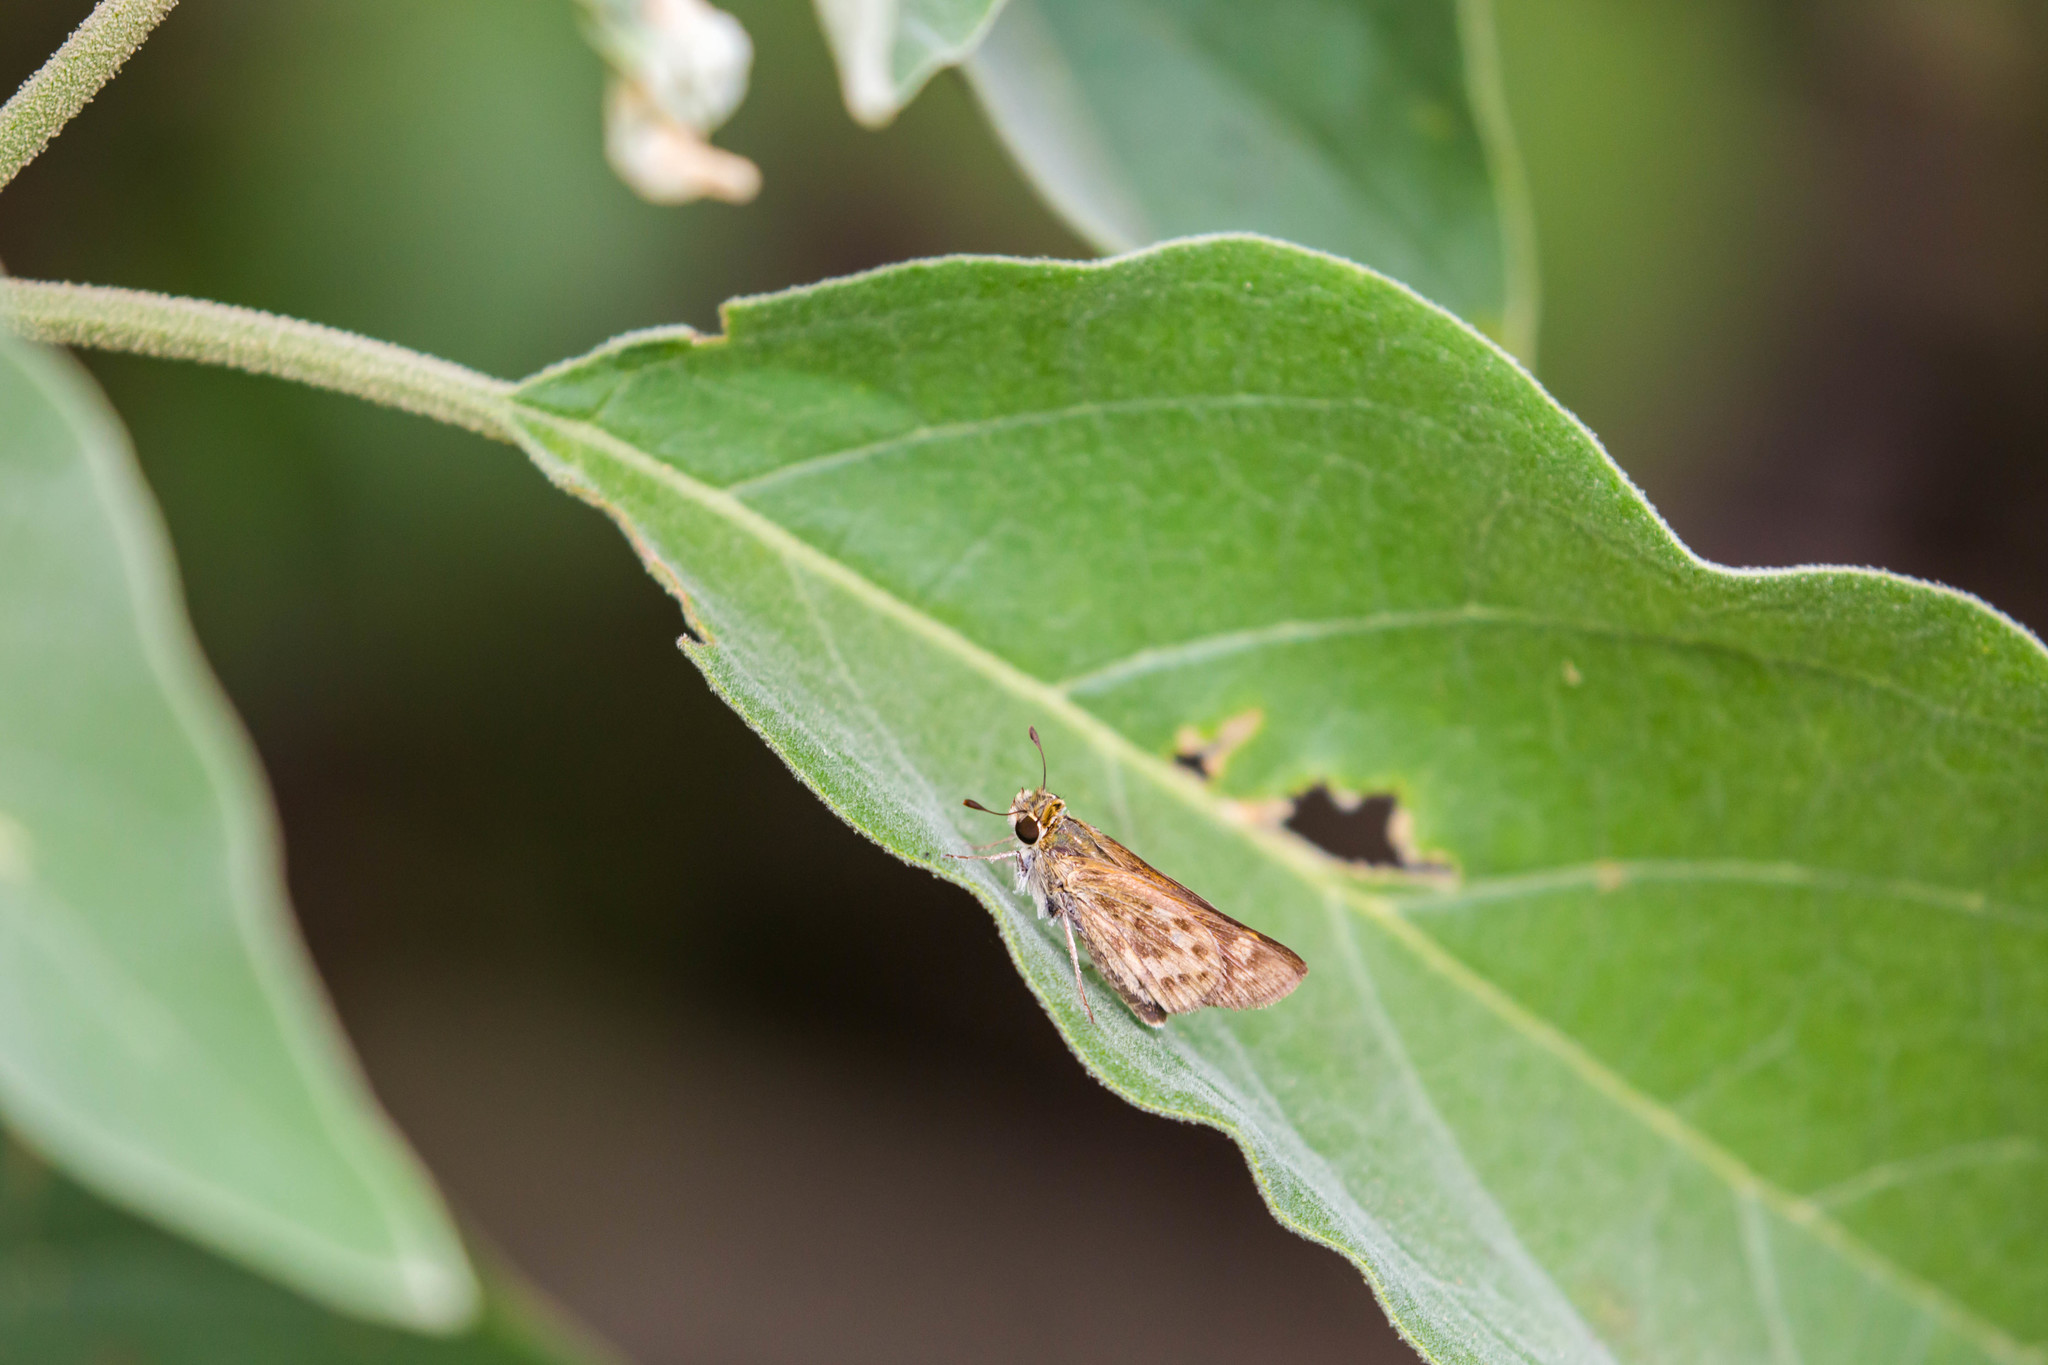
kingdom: Animalia
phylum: Arthropoda
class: Insecta
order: Lepidoptera
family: Hesperiidae
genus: Hylephila
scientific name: Hylephila phyleus
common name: Fiery skipper
